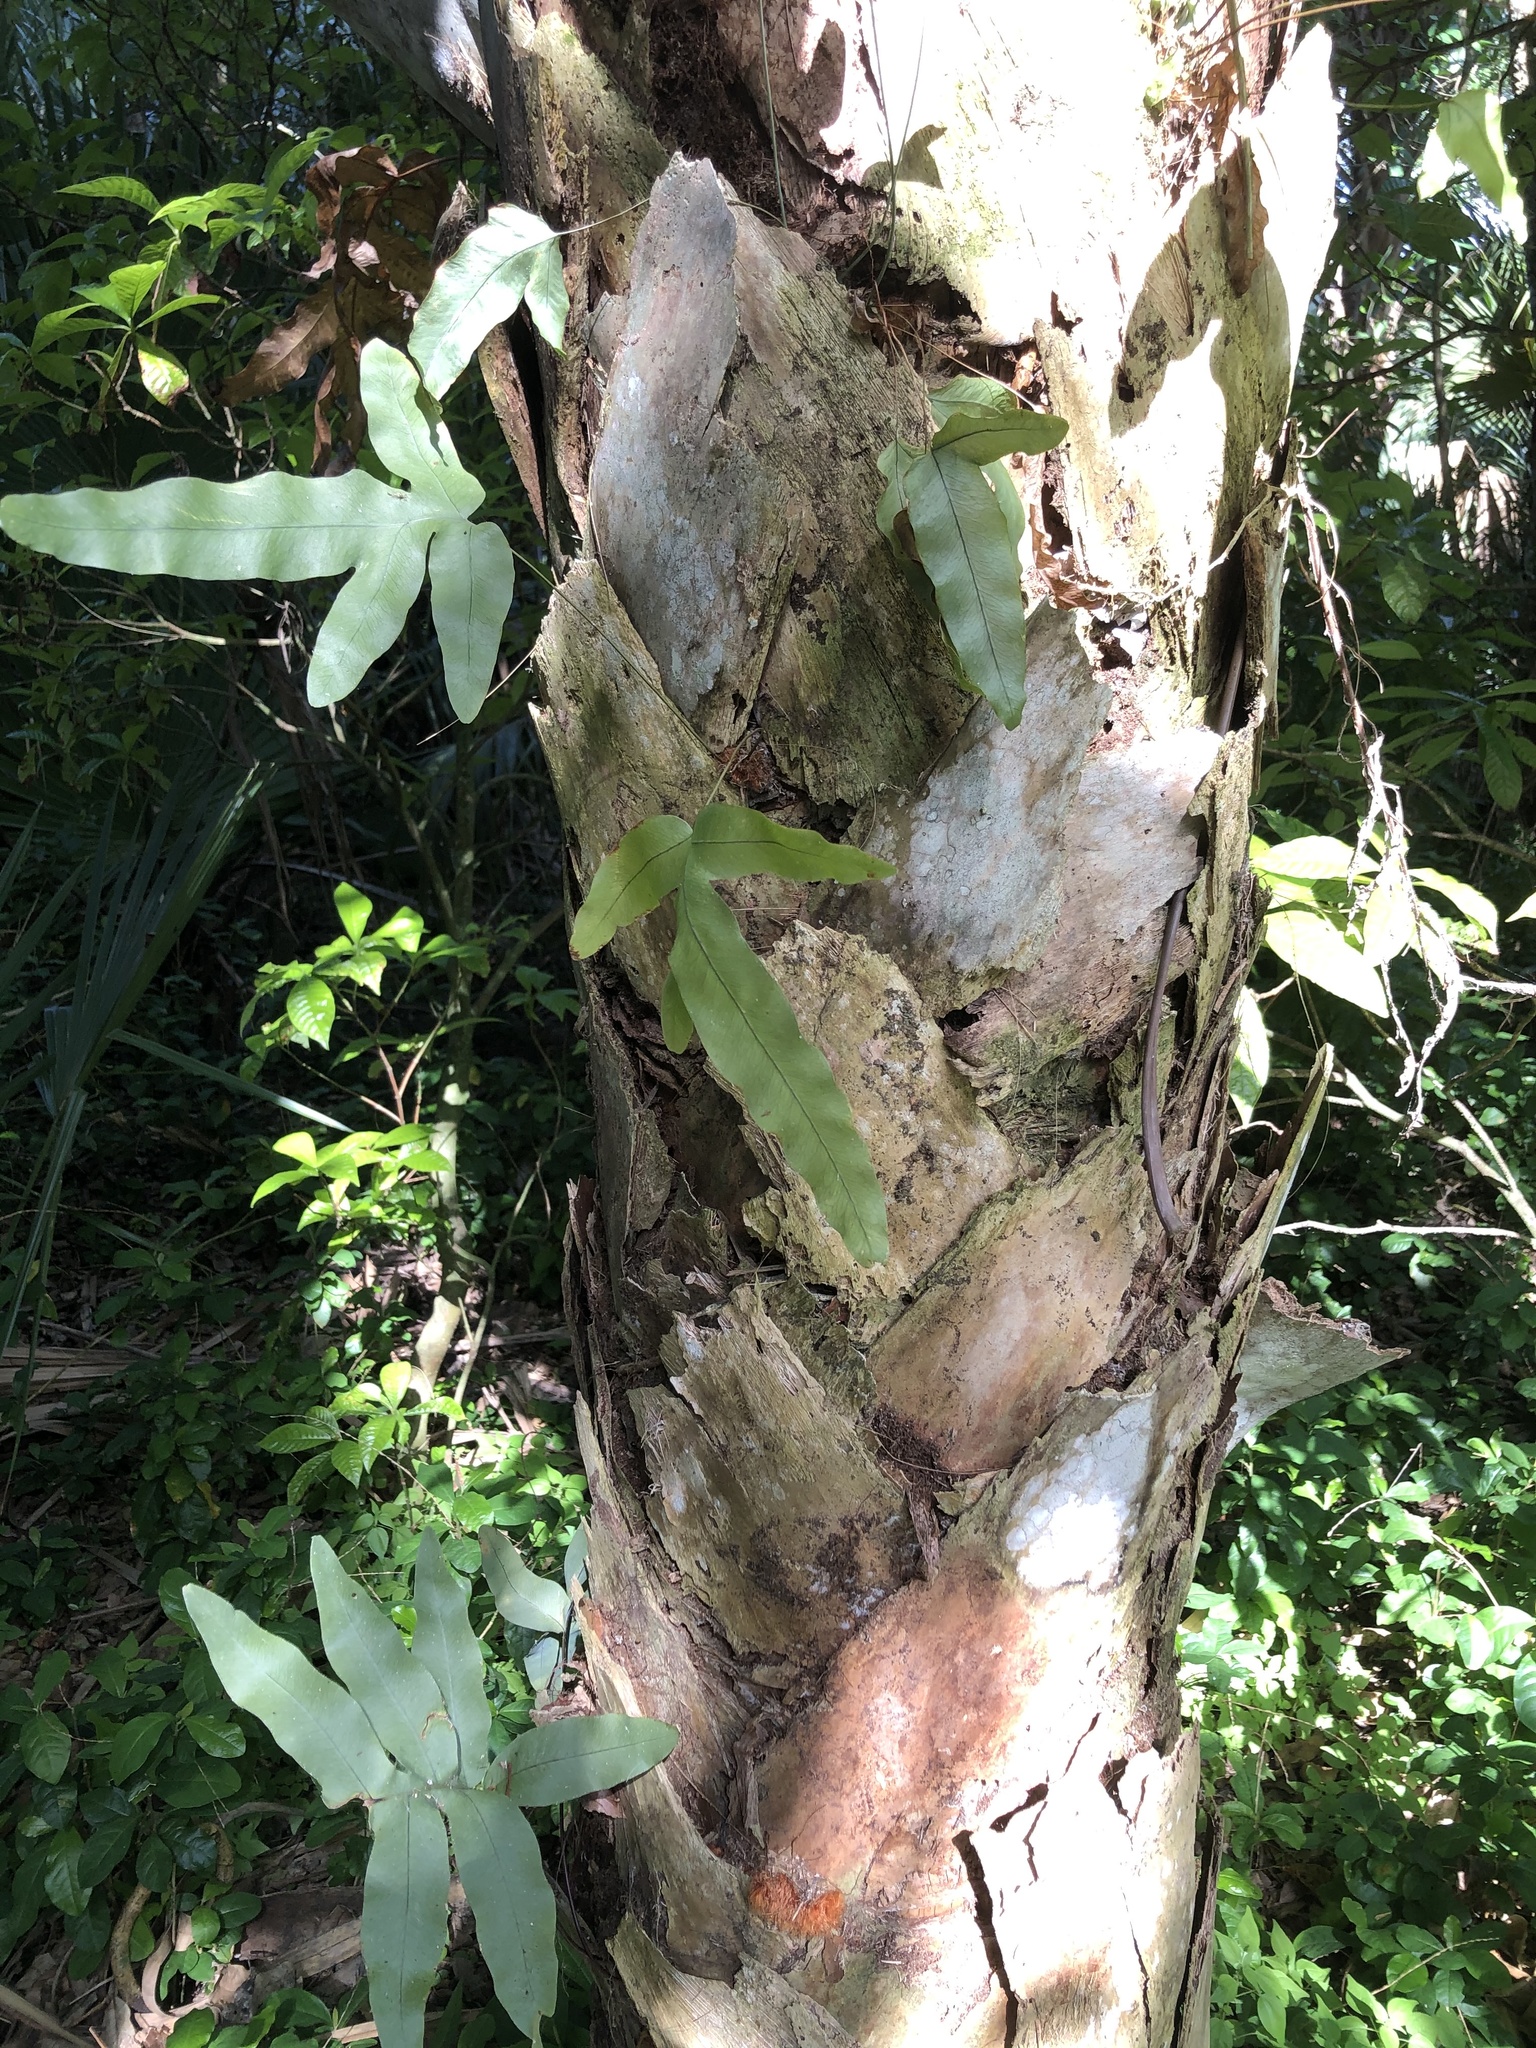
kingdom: Plantae
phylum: Tracheophyta
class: Polypodiopsida
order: Polypodiales
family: Polypodiaceae
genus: Phlebodium
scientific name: Phlebodium aureum
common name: Gold-foot fern
